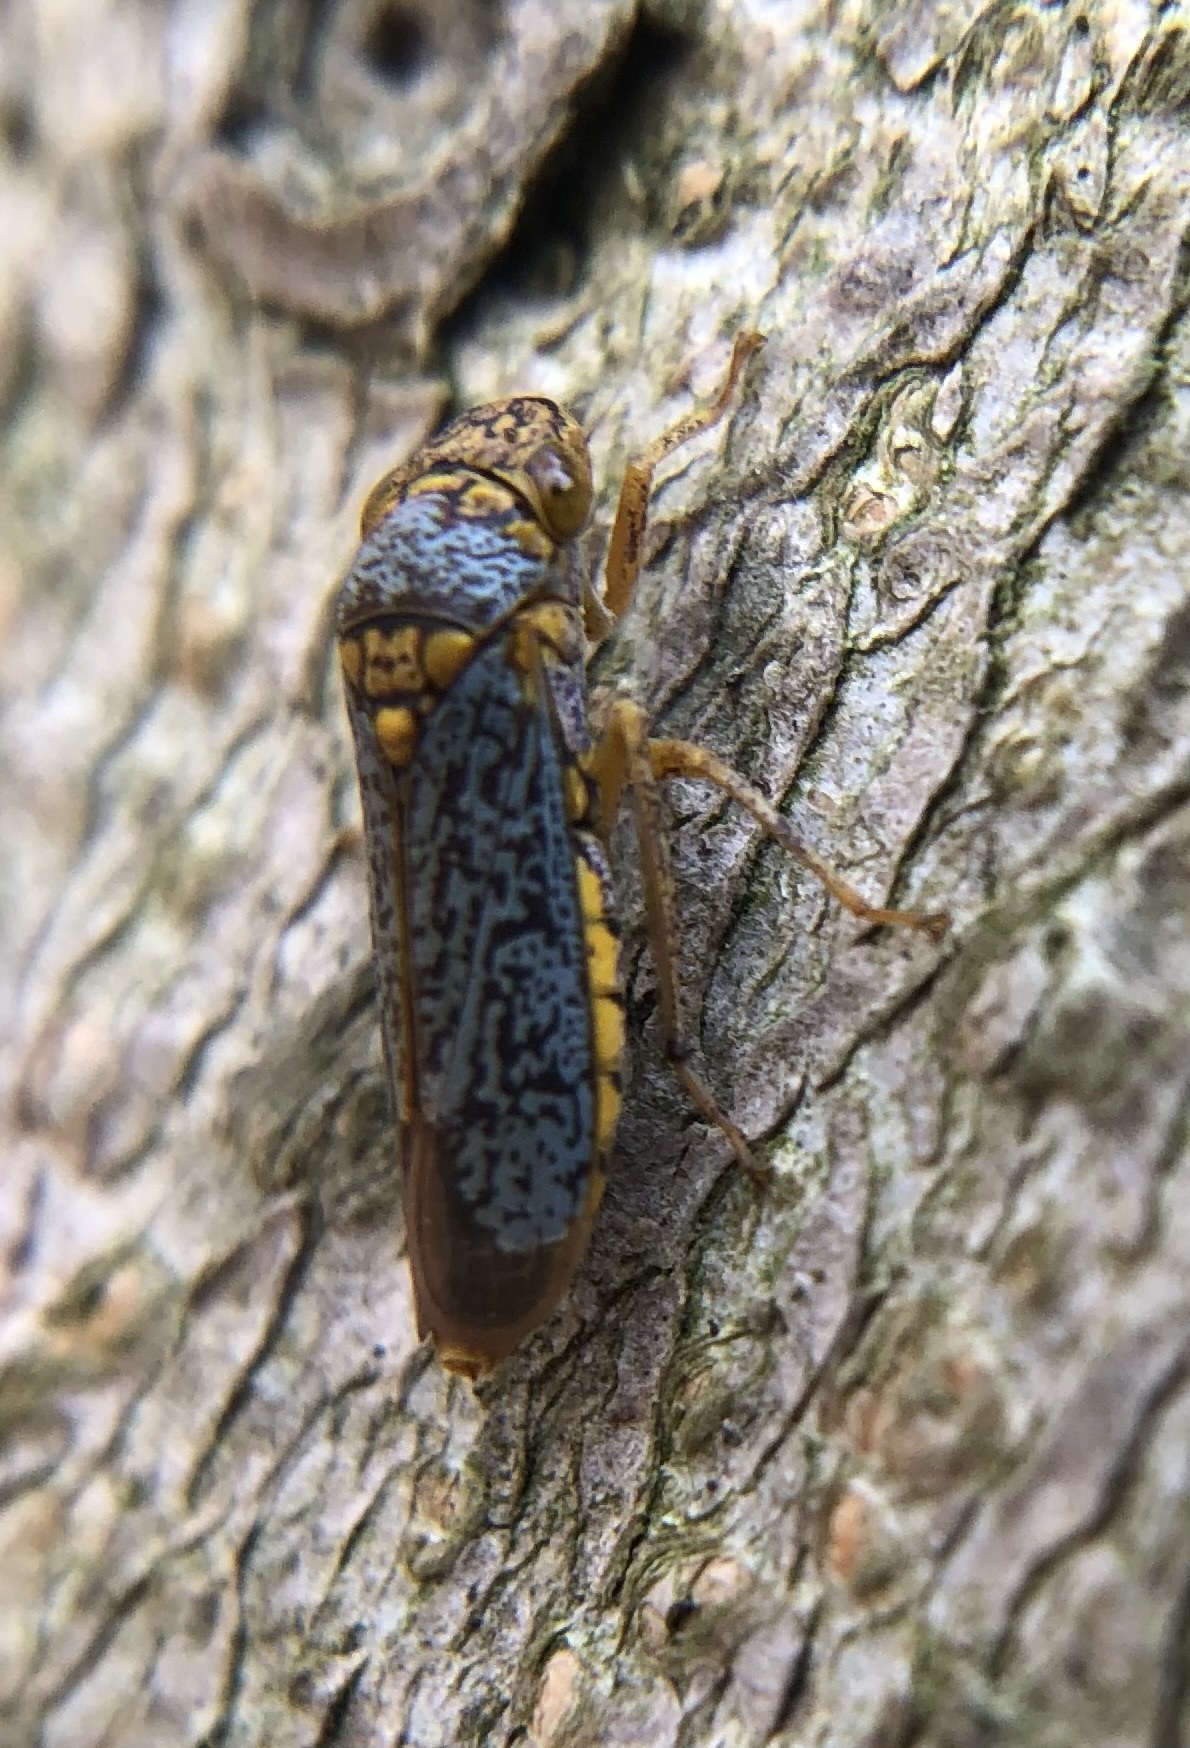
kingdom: Animalia
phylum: Arthropoda
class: Insecta
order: Hemiptera
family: Cicadellidae
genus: Oncometopia
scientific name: Oncometopia orbona
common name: Broad-headed sharpshooter
